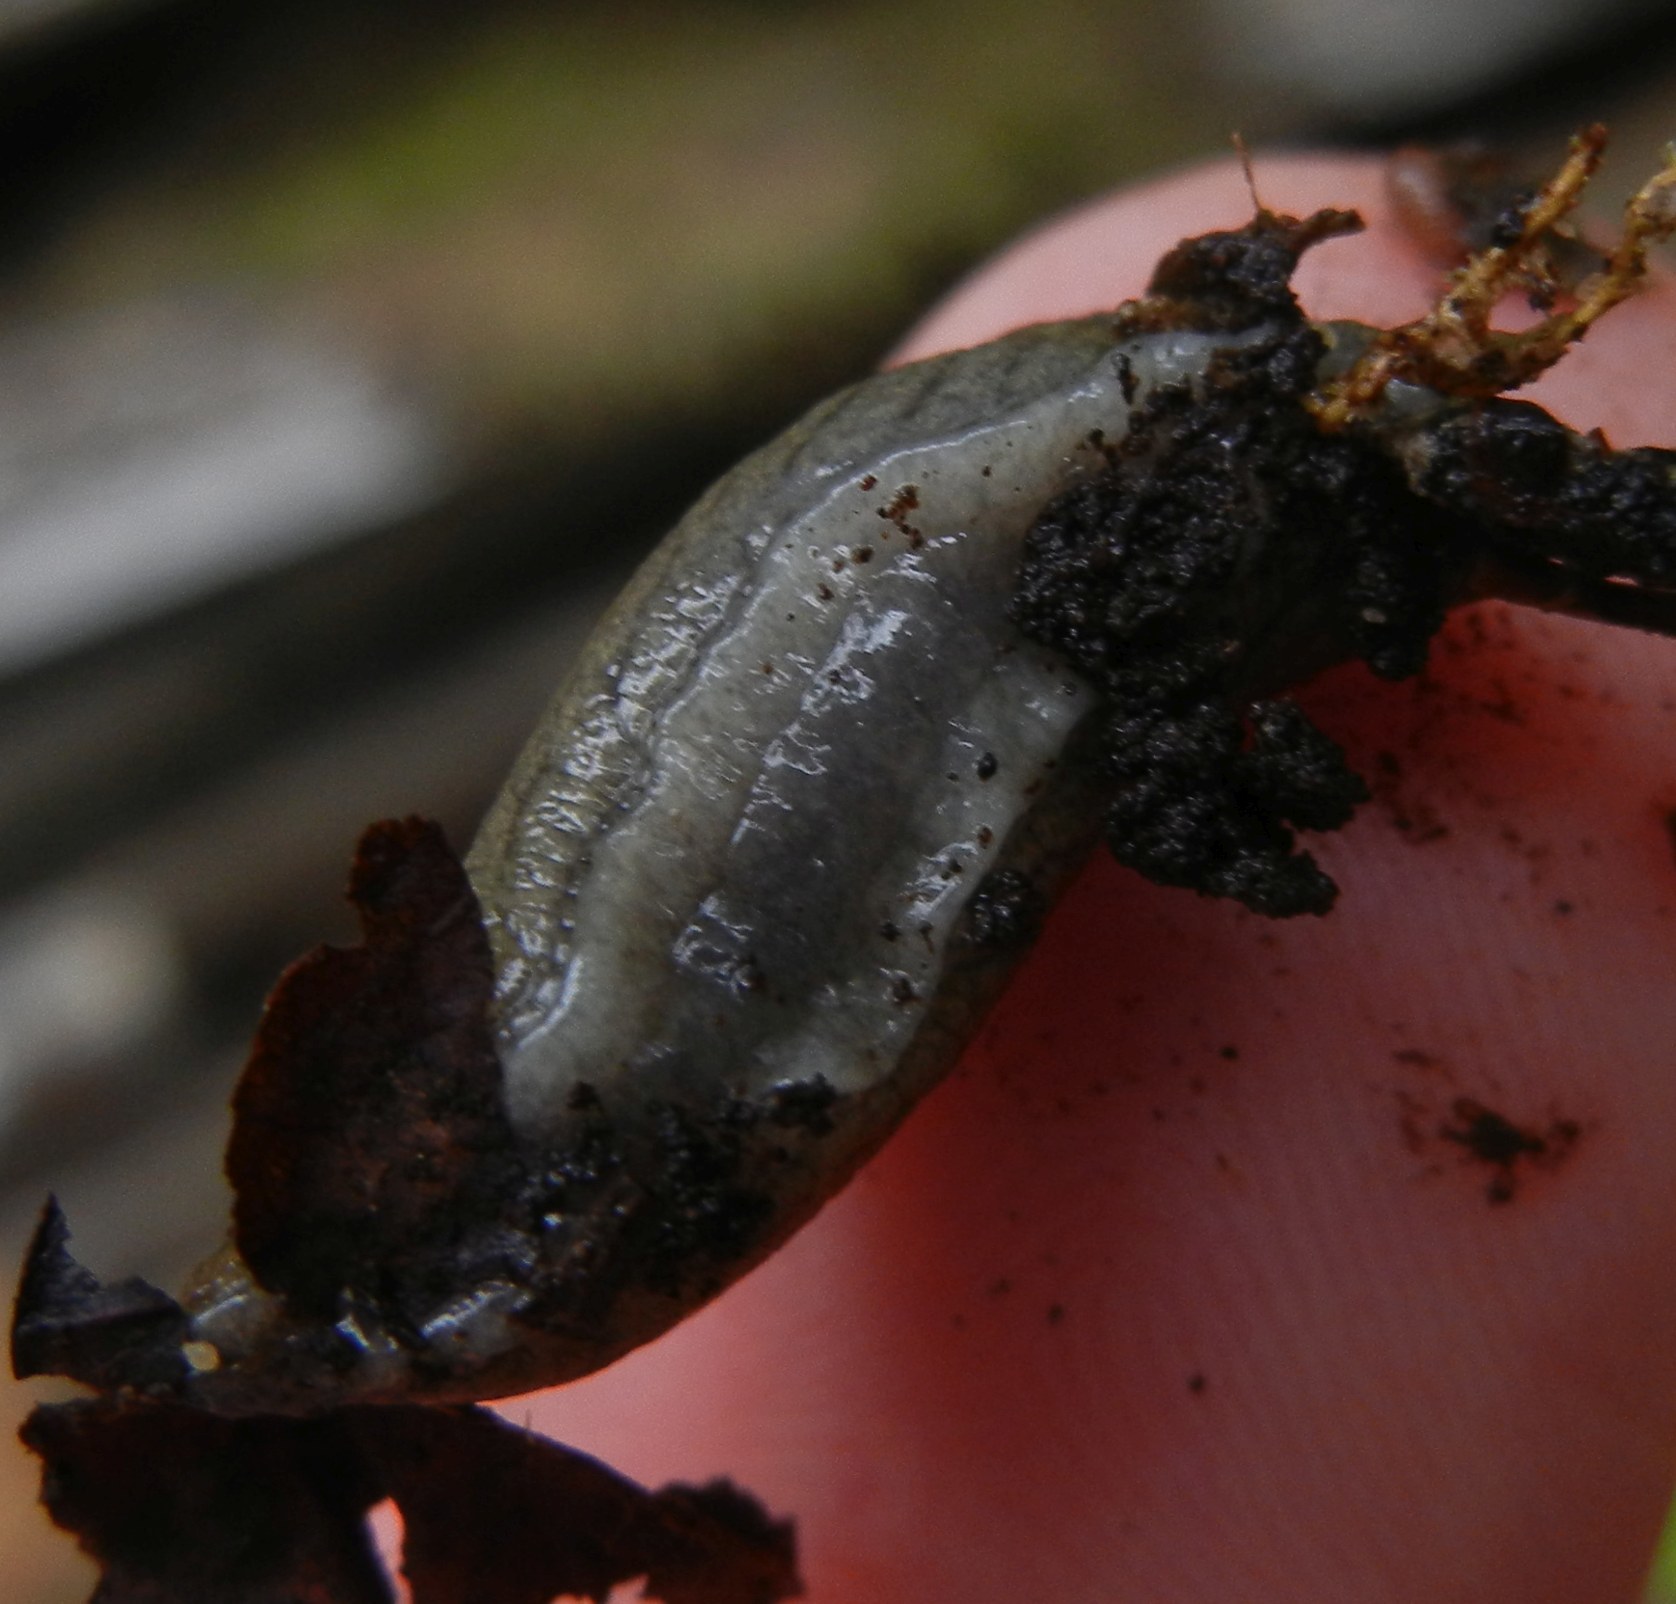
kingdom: Animalia
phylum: Mollusca
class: Gastropoda
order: Stylommatophora
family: Milacidae
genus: Tandonia
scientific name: Tandonia budapestensis
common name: Budapest slug
